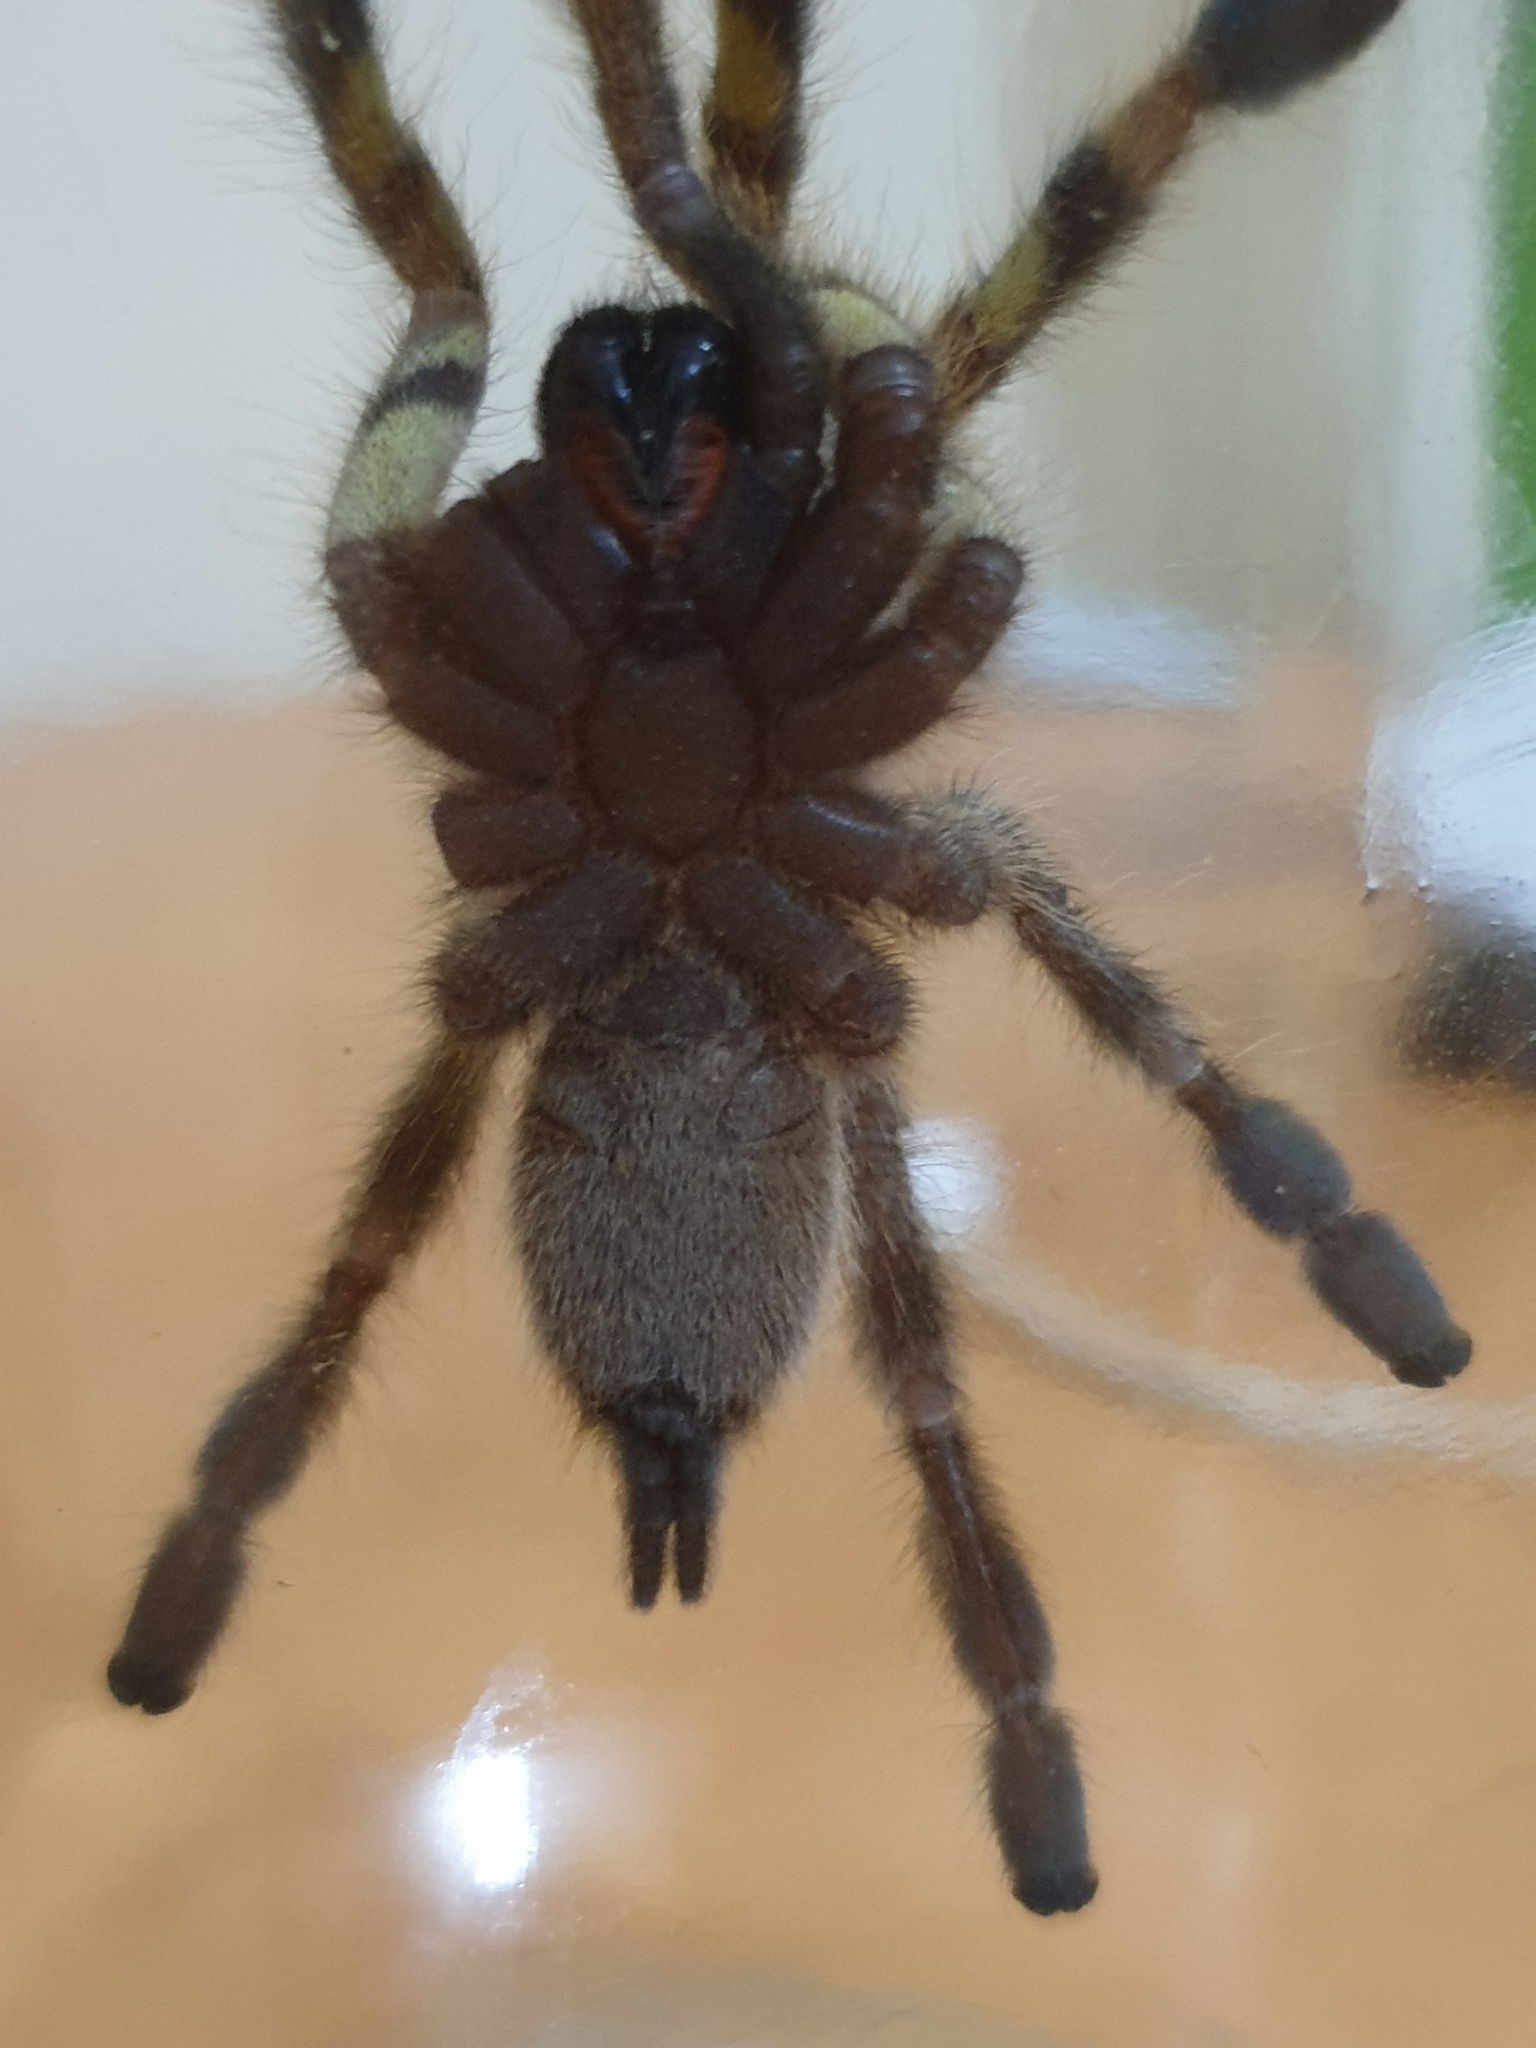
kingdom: Animalia
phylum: Arthropoda
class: Arachnida
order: Araneae
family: Theraphosidae
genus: Poecilotheria
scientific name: Poecilotheria hanumavilasumica
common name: Rameshwaram ornamental
